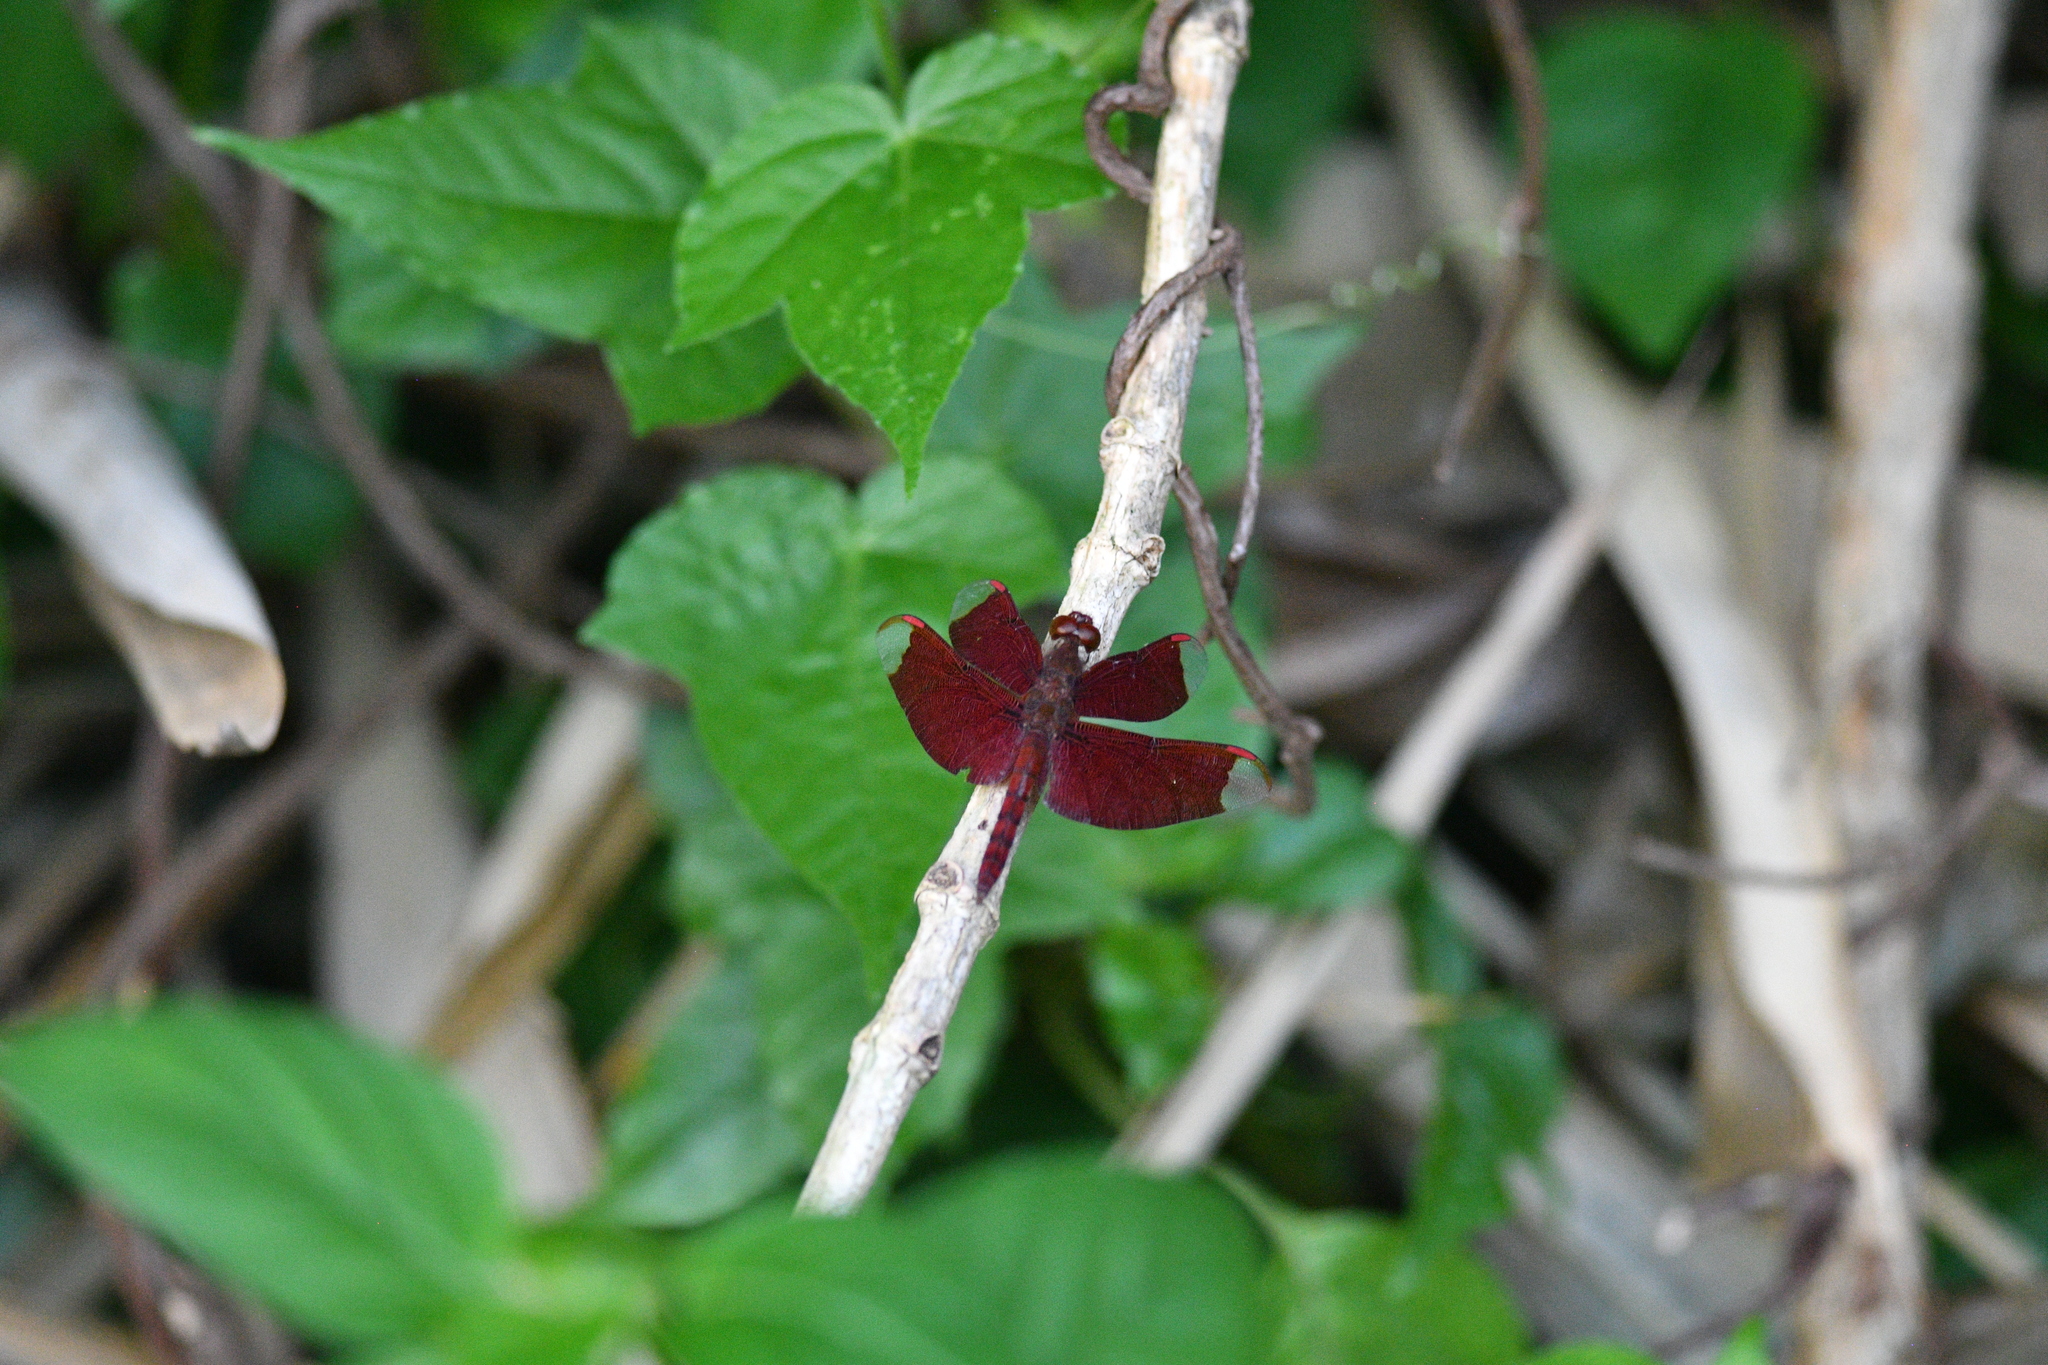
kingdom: Animalia
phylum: Arthropoda
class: Insecta
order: Odonata
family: Libellulidae
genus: Neurothemis
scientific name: Neurothemis fulvia
